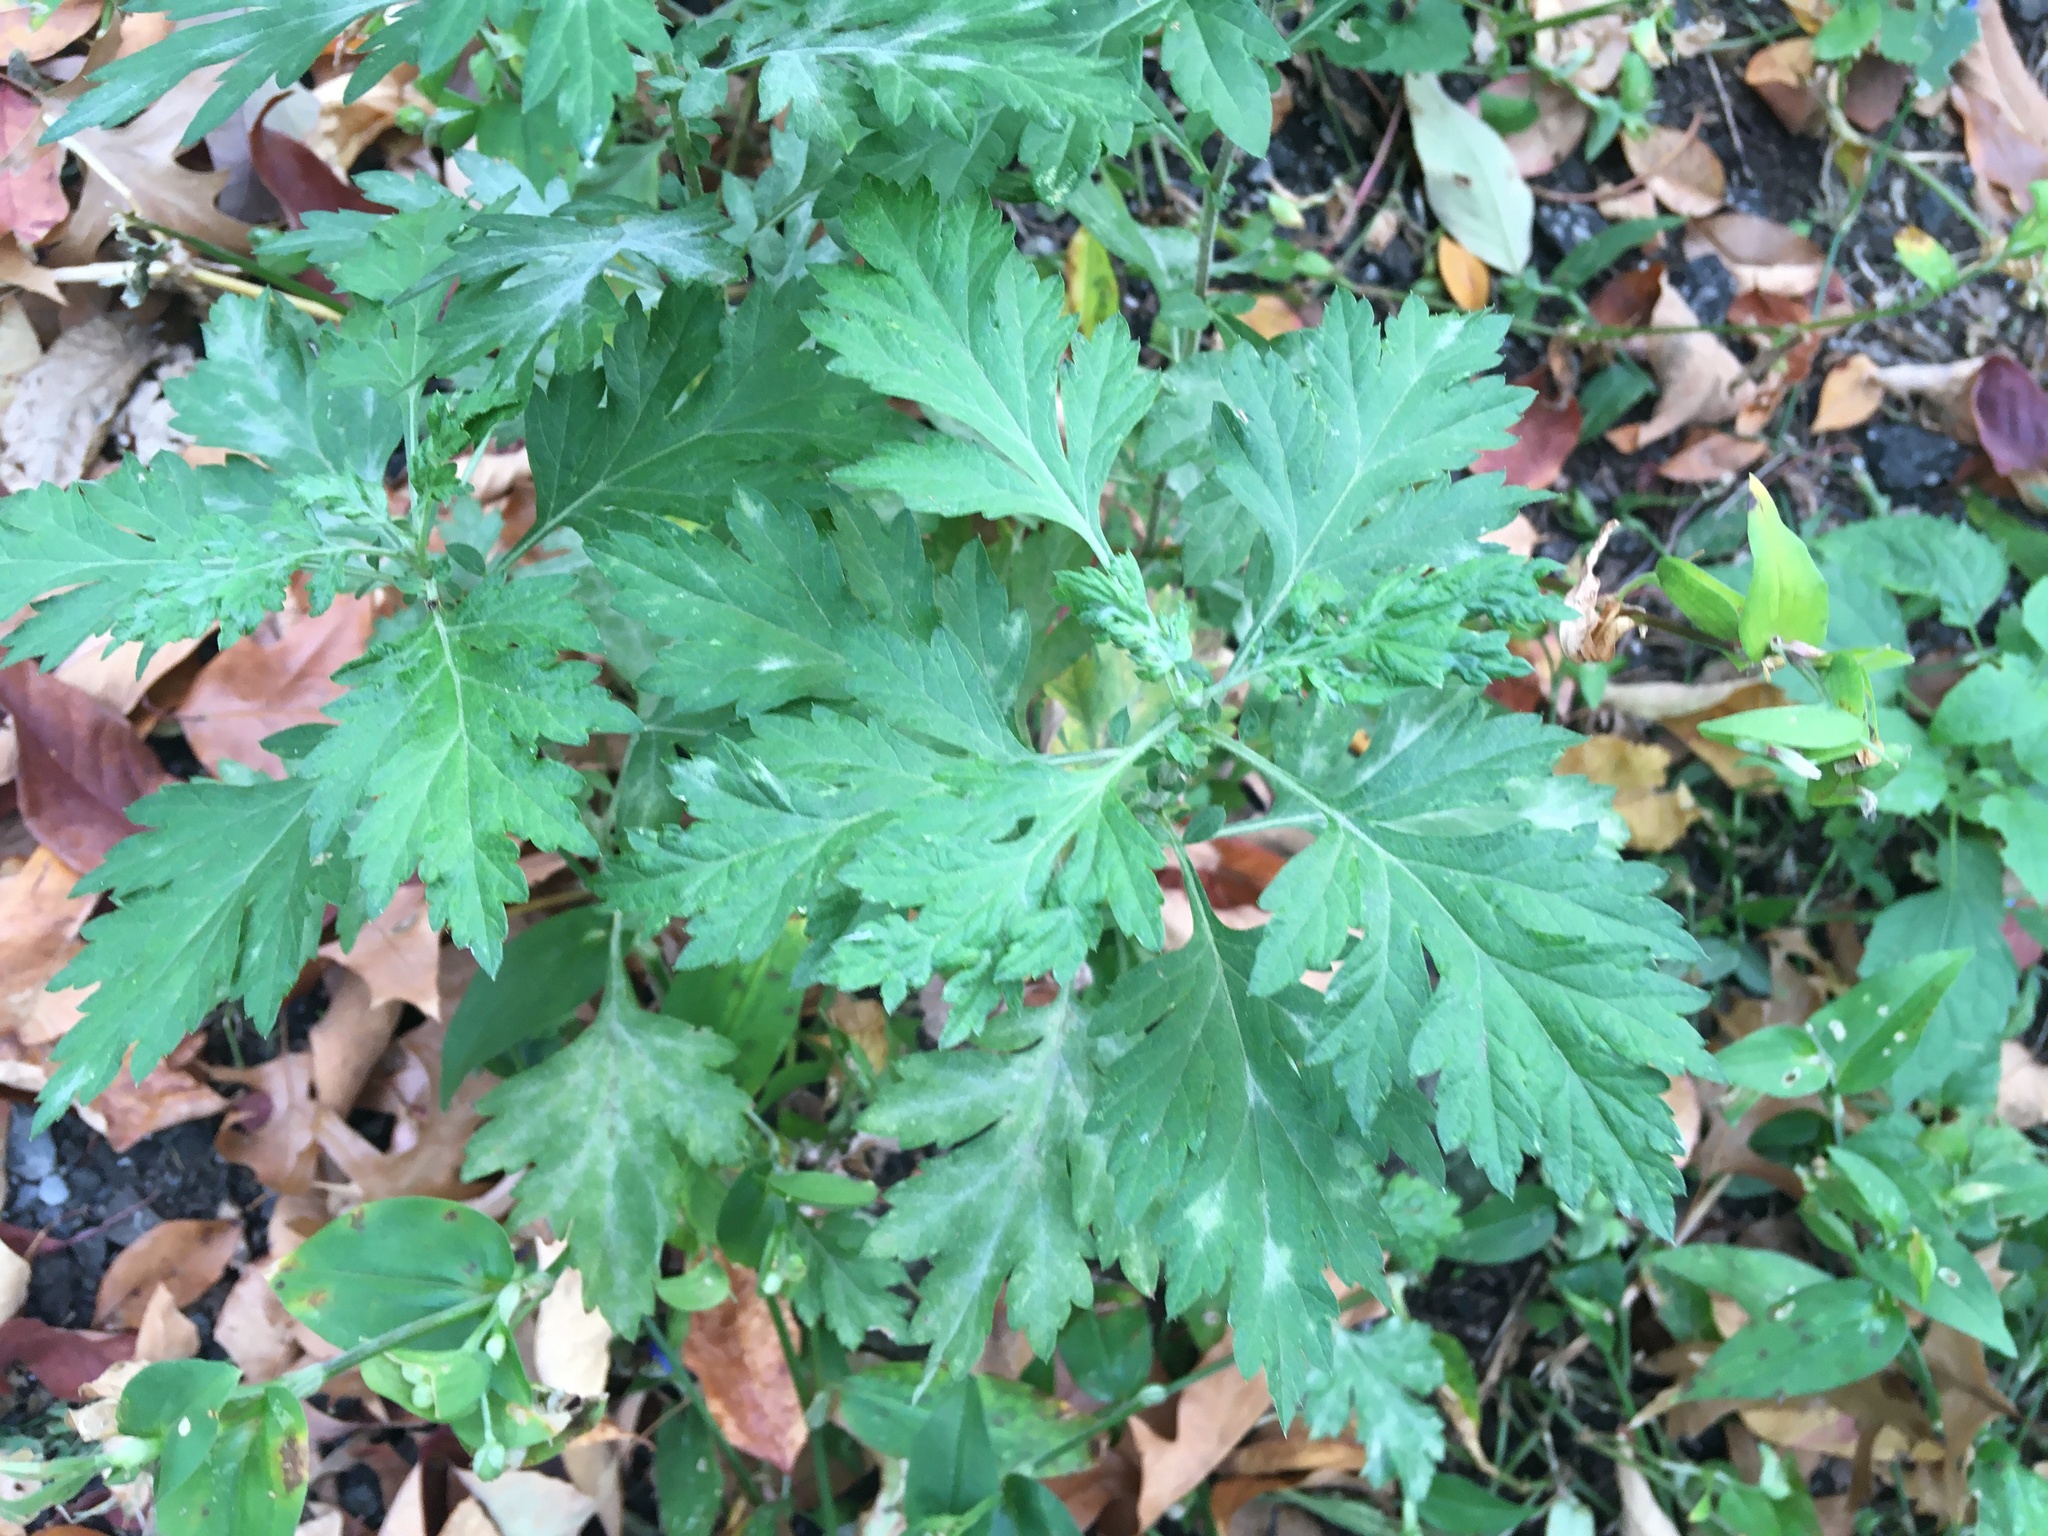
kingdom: Plantae
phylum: Tracheophyta
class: Magnoliopsida
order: Asterales
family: Asteraceae
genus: Artemisia
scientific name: Artemisia vulgaris
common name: Mugwort
